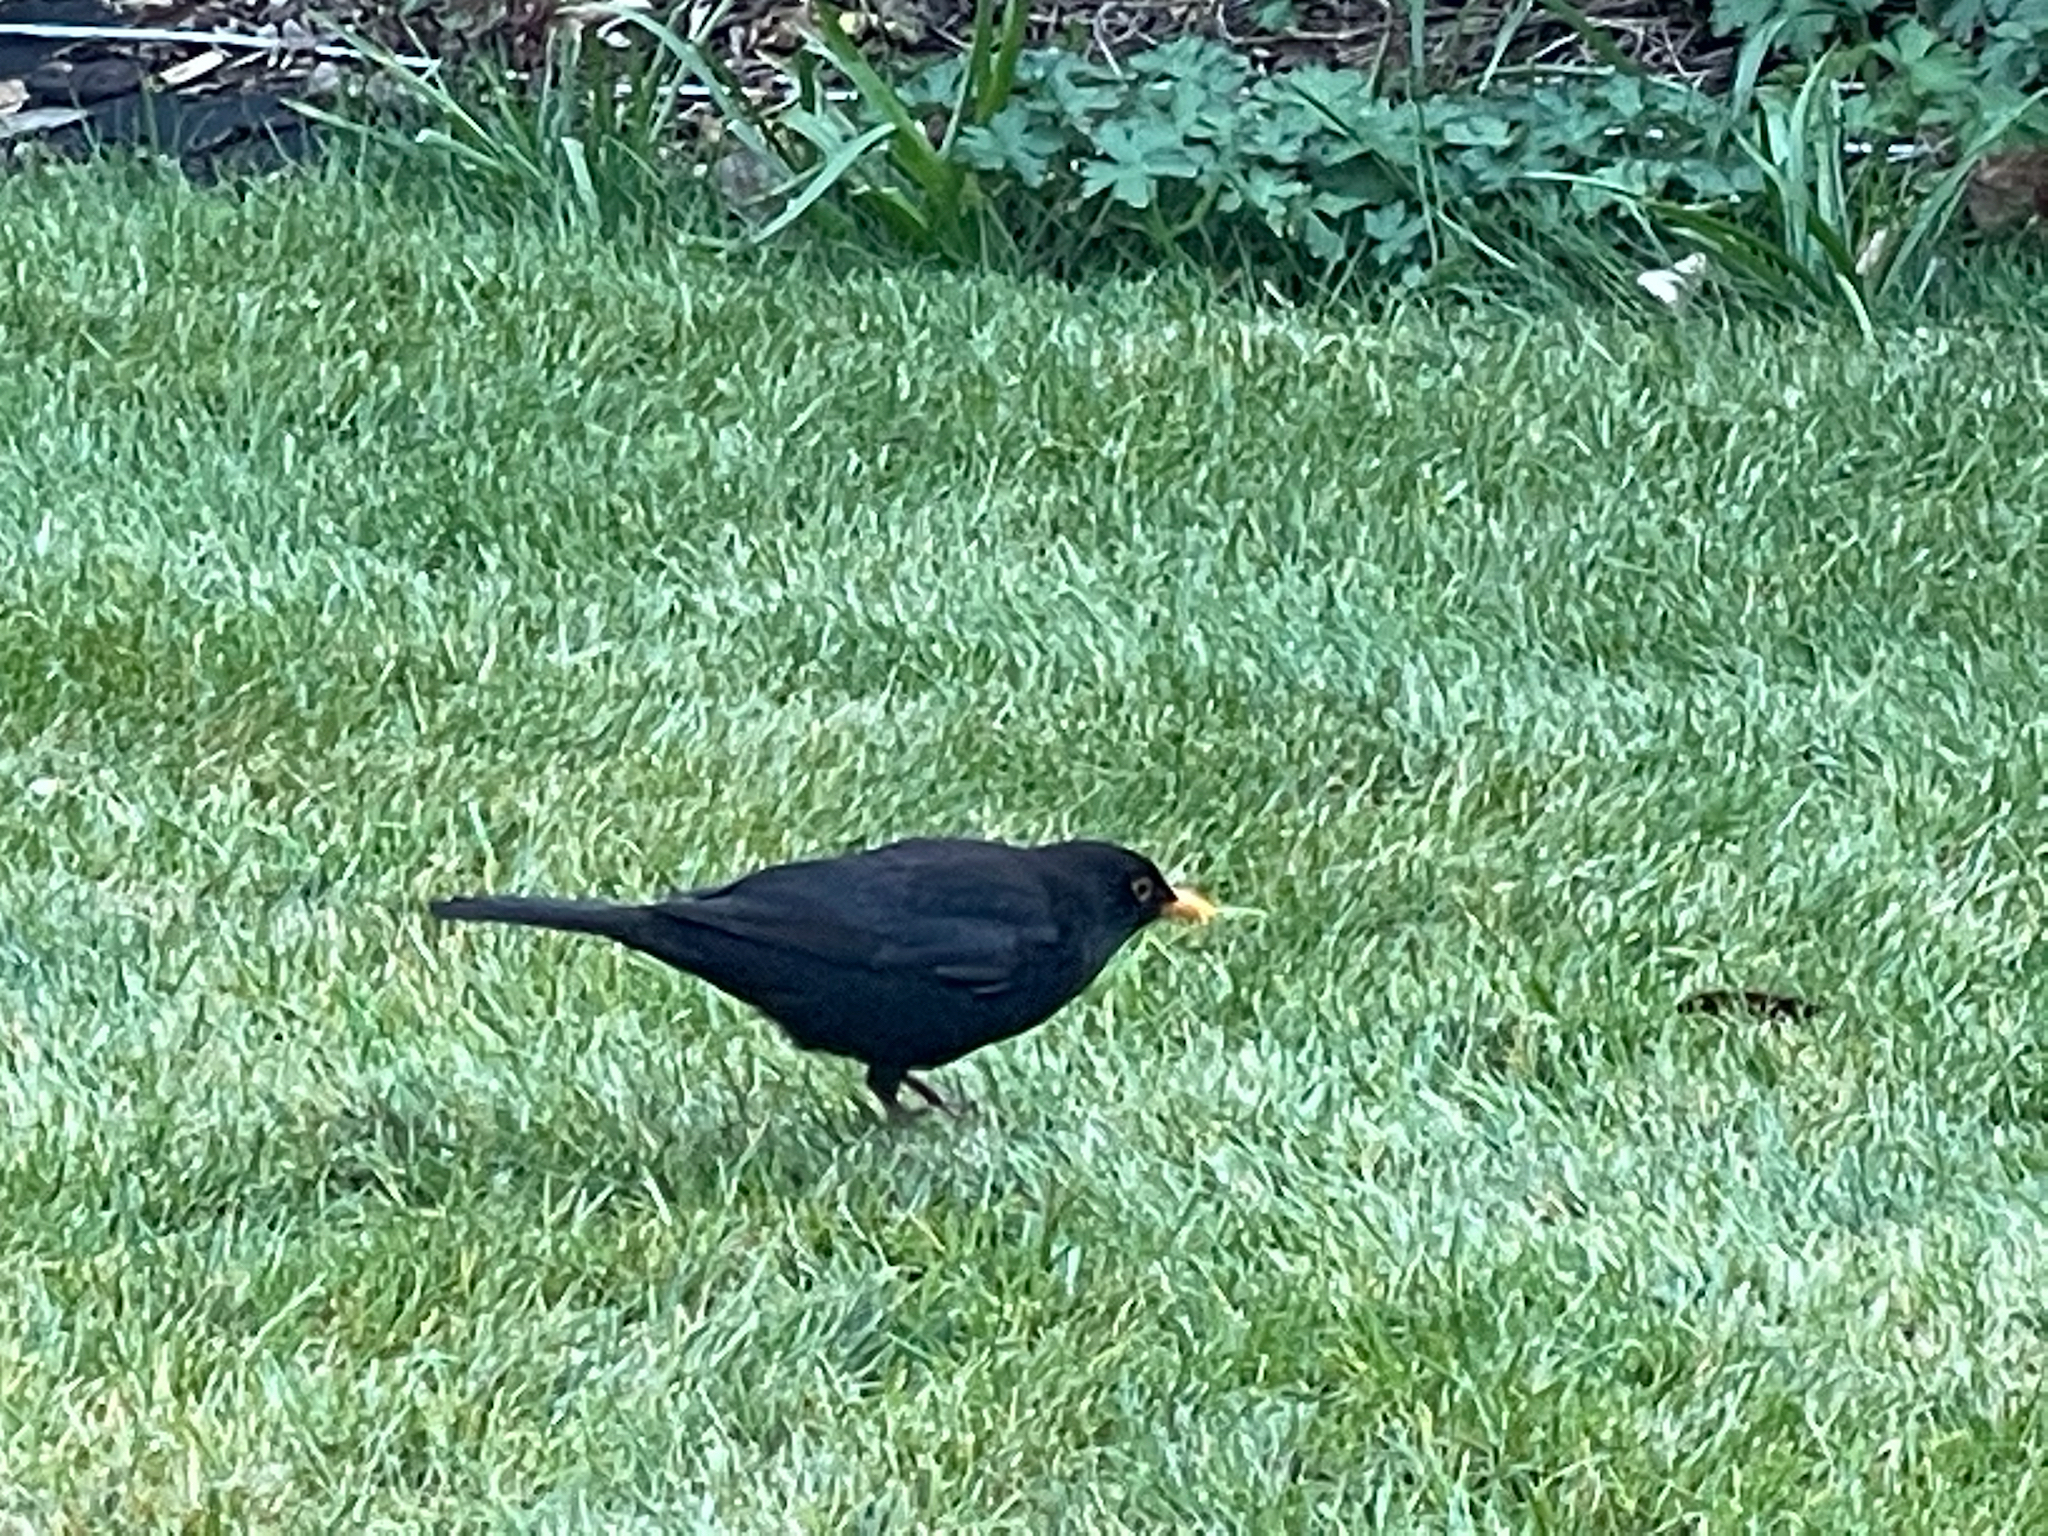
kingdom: Animalia
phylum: Chordata
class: Aves
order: Passeriformes
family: Turdidae
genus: Turdus
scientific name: Turdus merula
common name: Common blackbird
